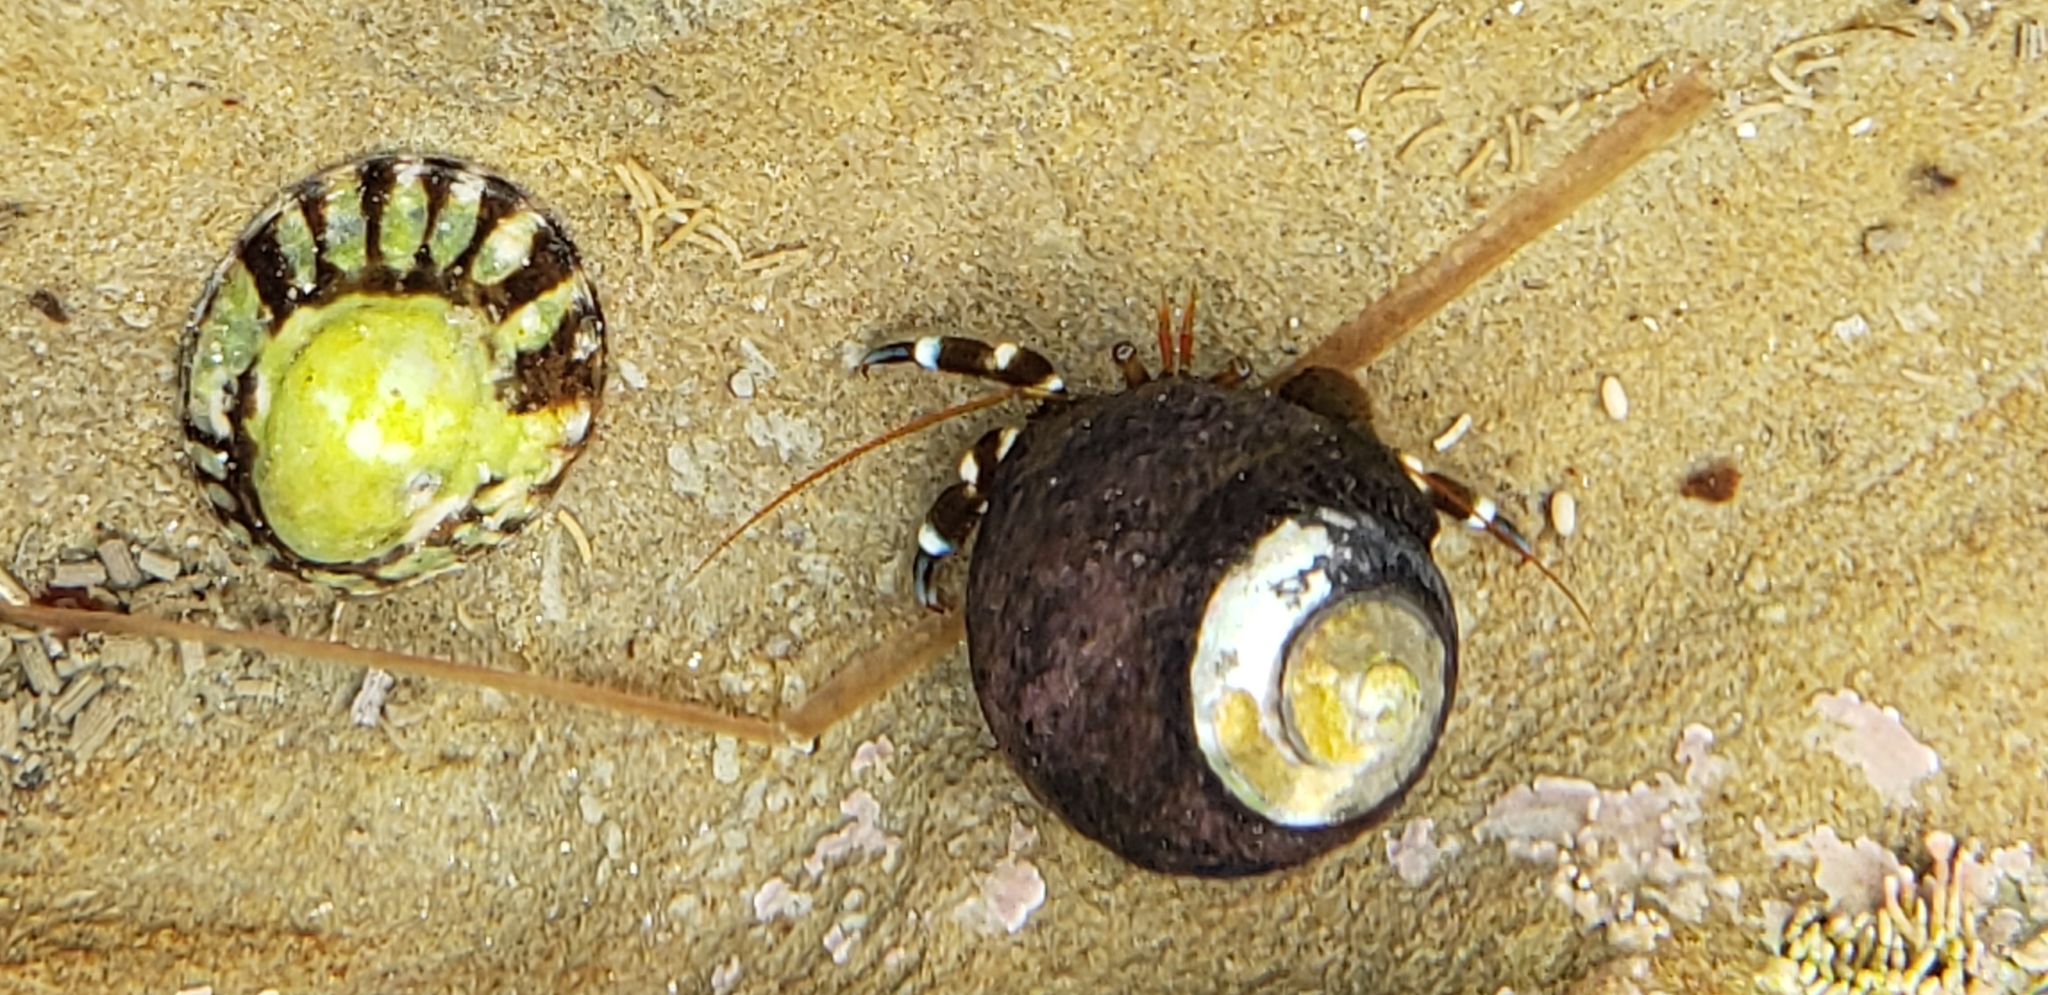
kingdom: Animalia
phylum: Arthropoda
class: Malacostraca
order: Decapoda
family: Paguridae
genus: Pagurus
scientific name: Pagurus samuelis
